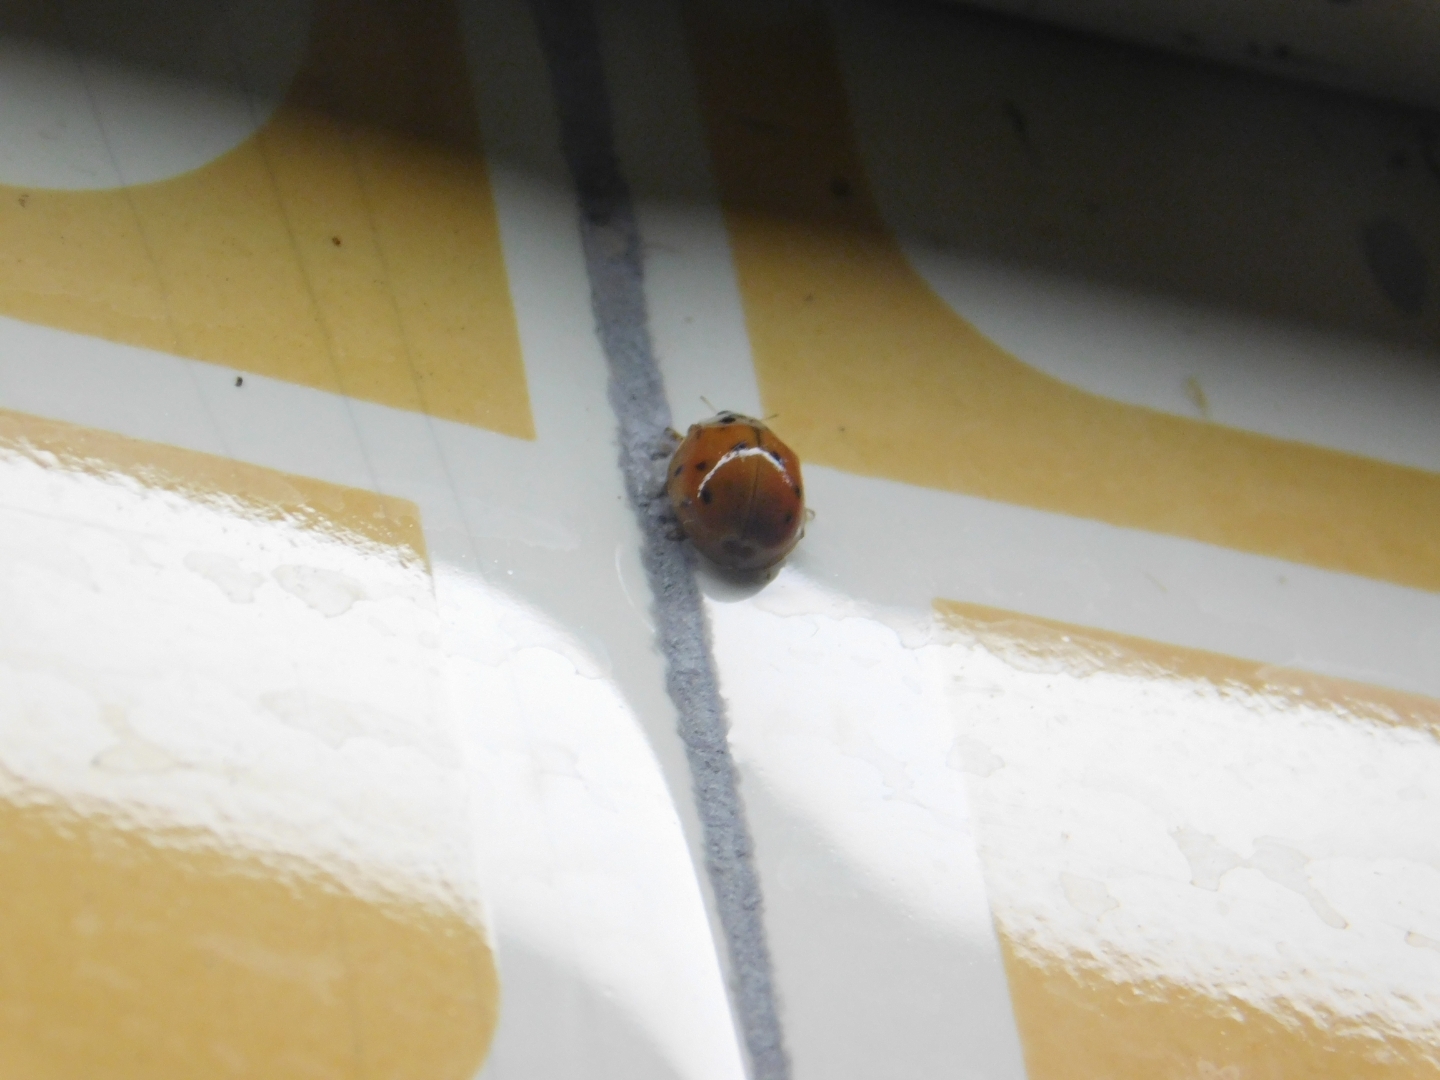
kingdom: Animalia
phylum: Arthropoda
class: Insecta
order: Coleoptera
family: Coccinellidae
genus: Harmonia
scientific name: Harmonia axyridis
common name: Harlequin ladybird
